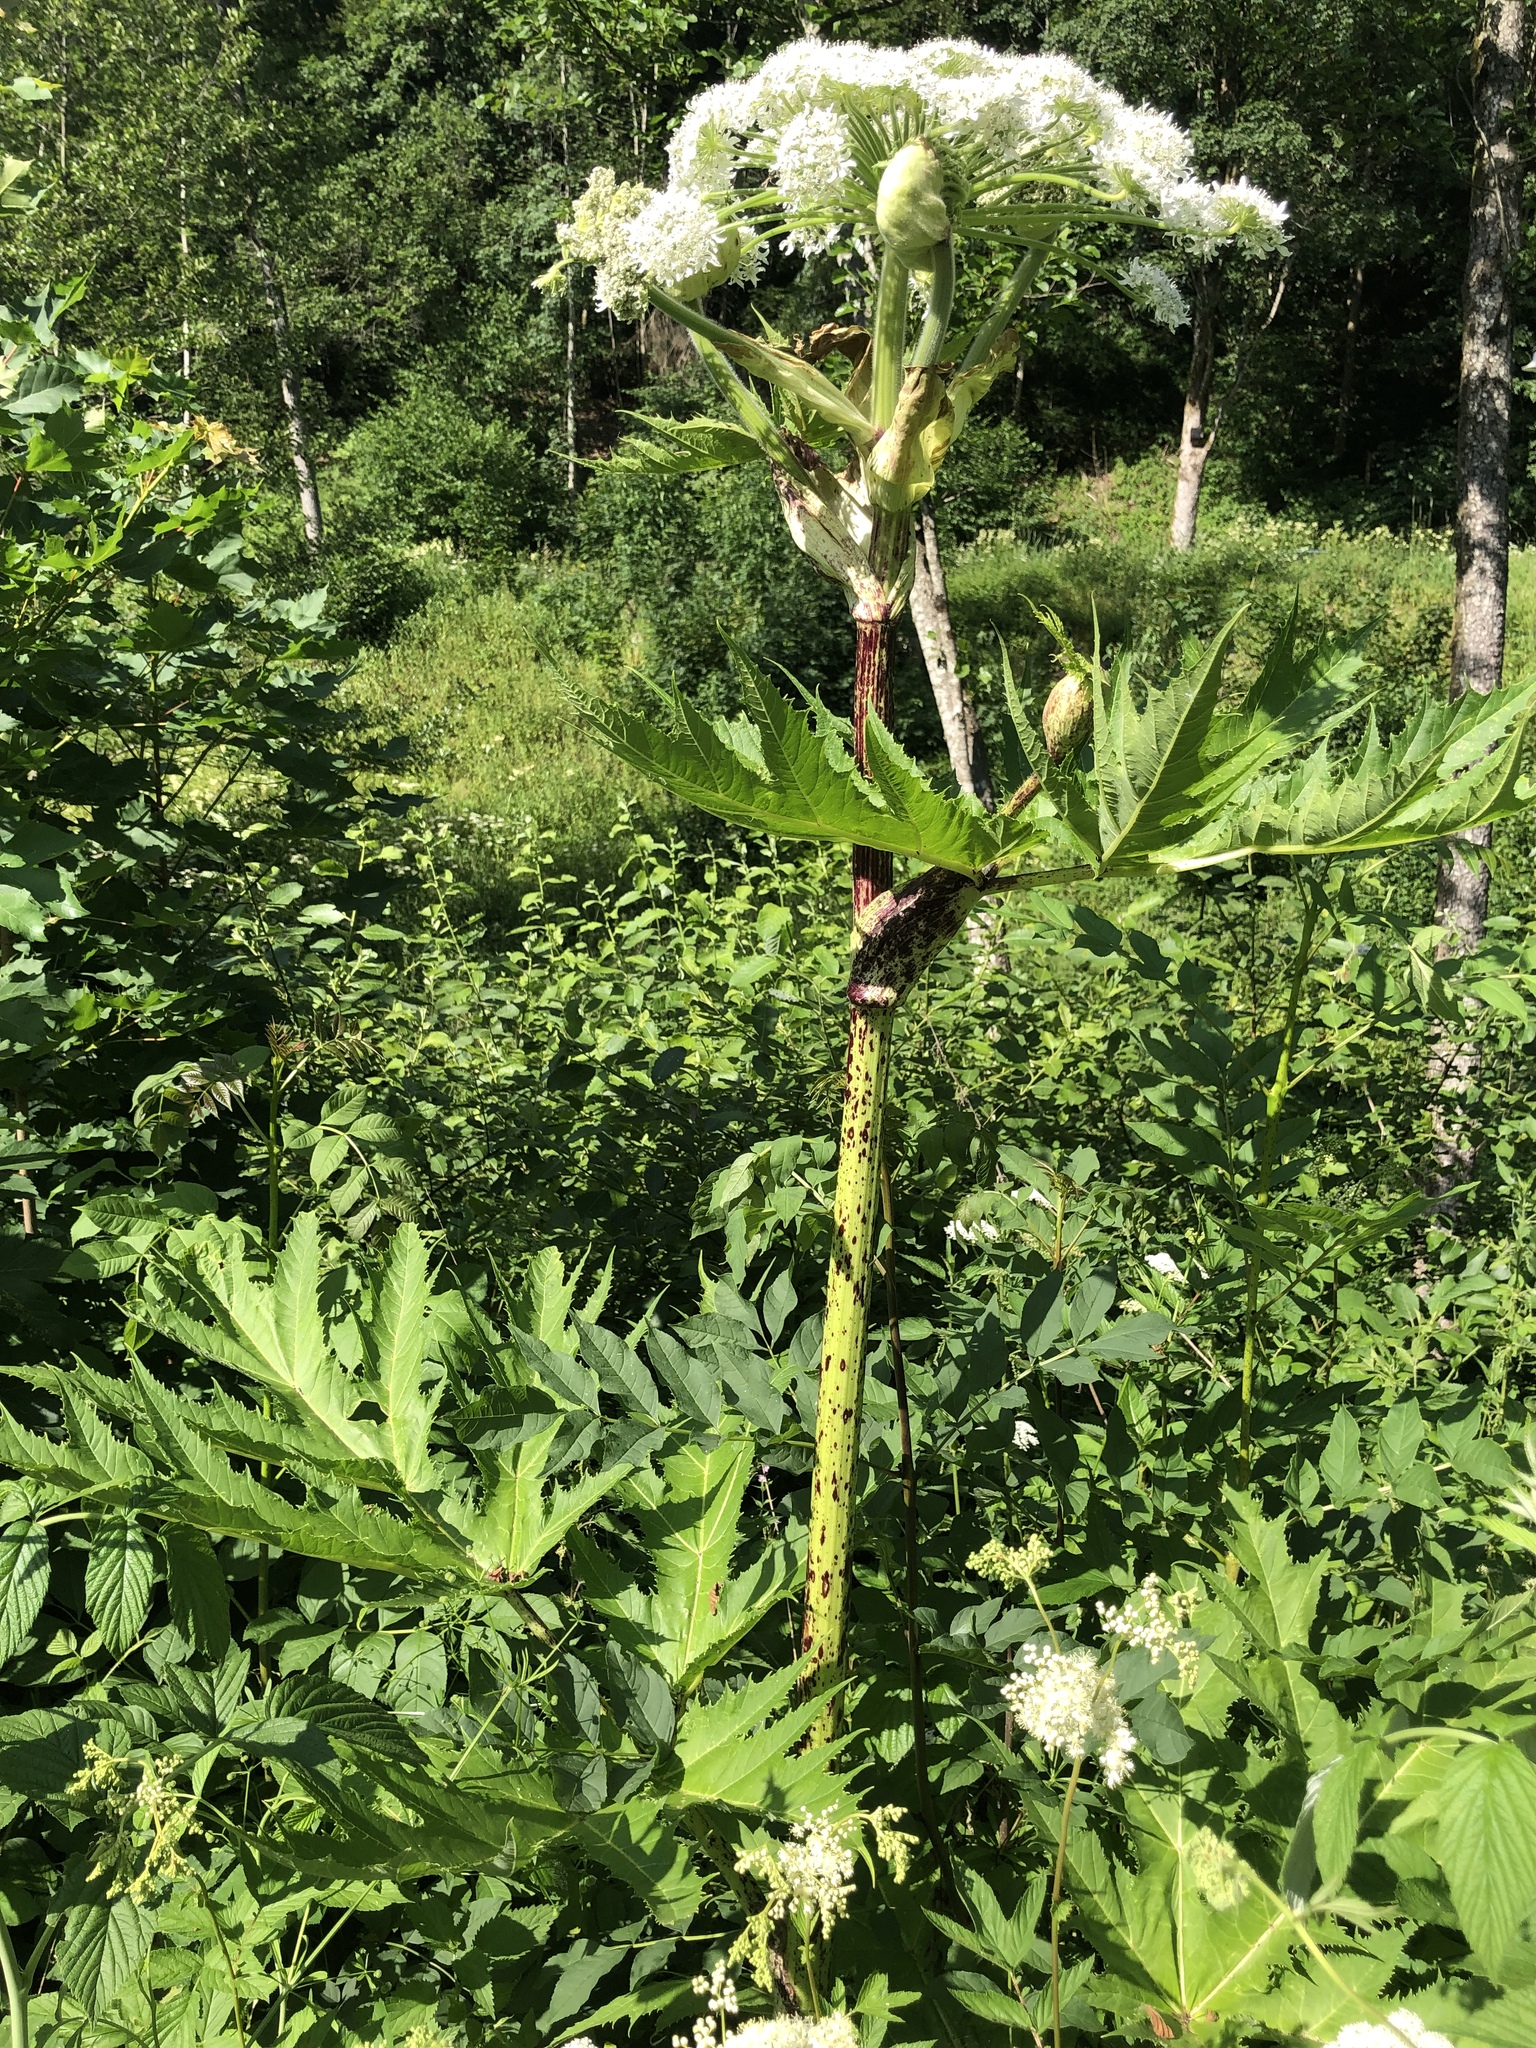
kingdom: Plantae
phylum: Tracheophyta
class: Magnoliopsida
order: Apiales
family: Apiaceae
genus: Heracleum
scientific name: Heracleum mantegazzianum
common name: Giant hogweed
